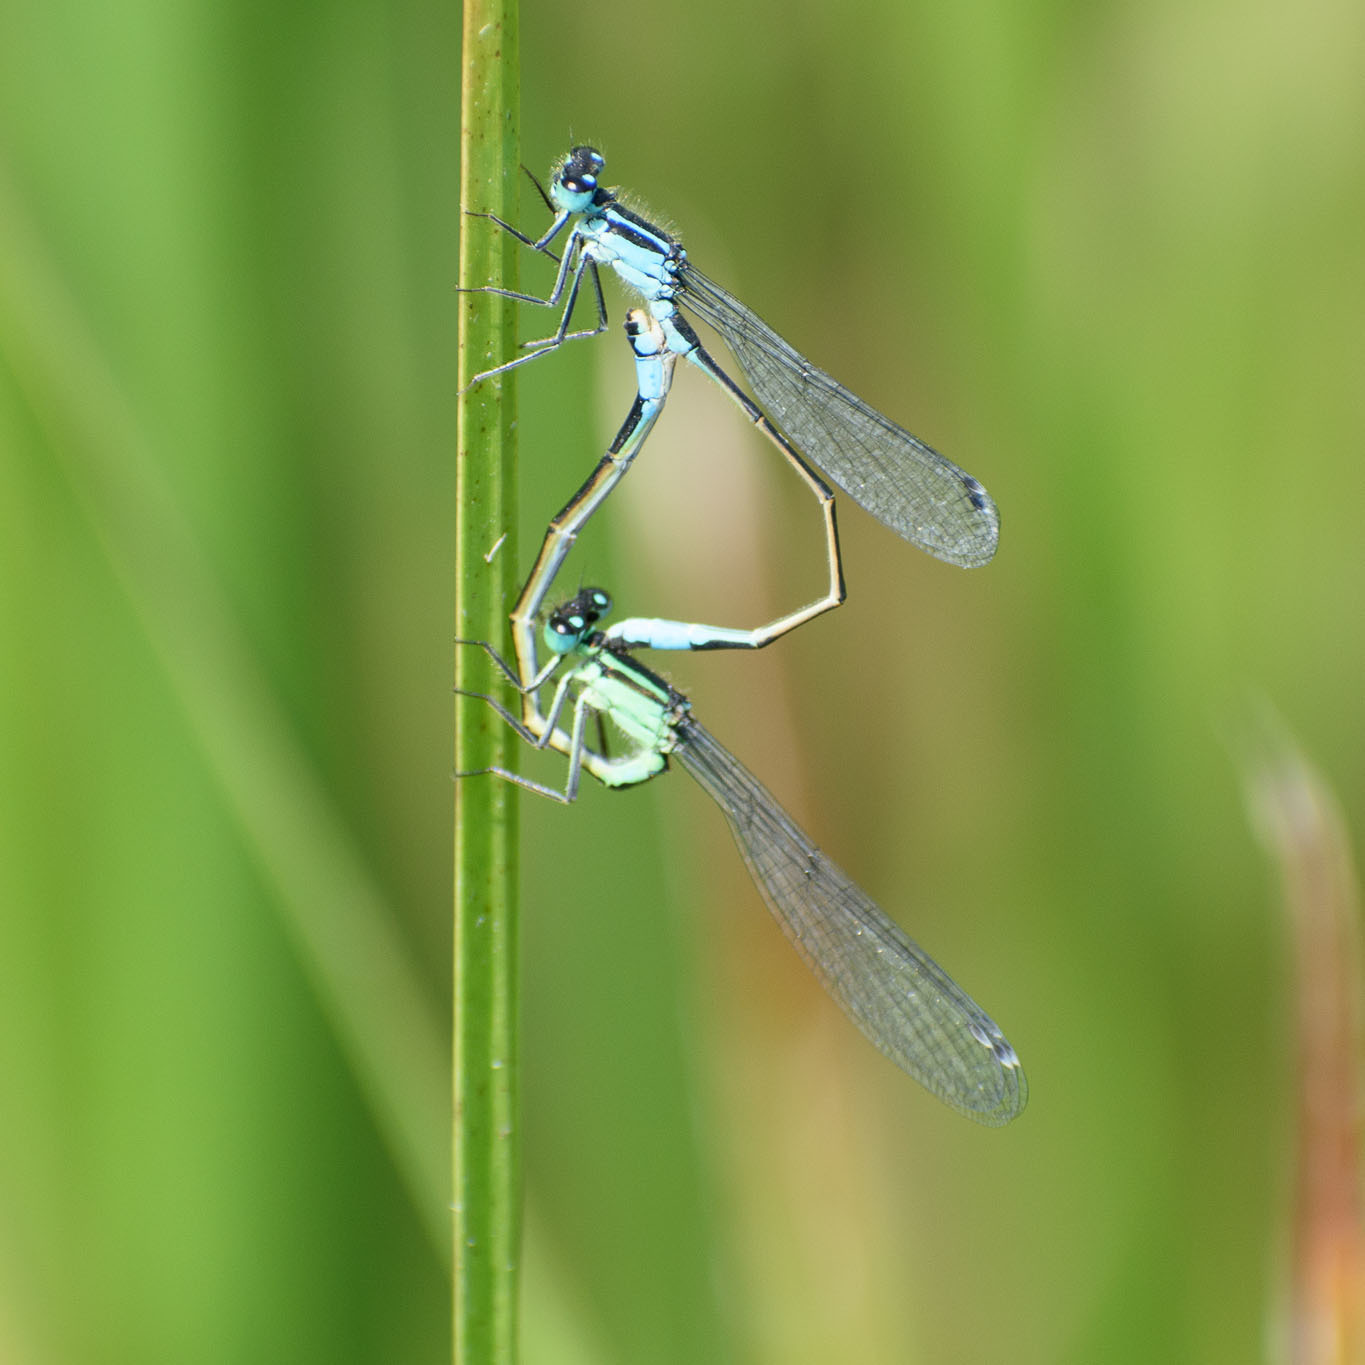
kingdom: Animalia
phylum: Arthropoda
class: Insecta
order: Odonata
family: Coenagrionidae
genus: Ischnura
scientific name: Ischnura elegans
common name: Blue-tailed damselfly
